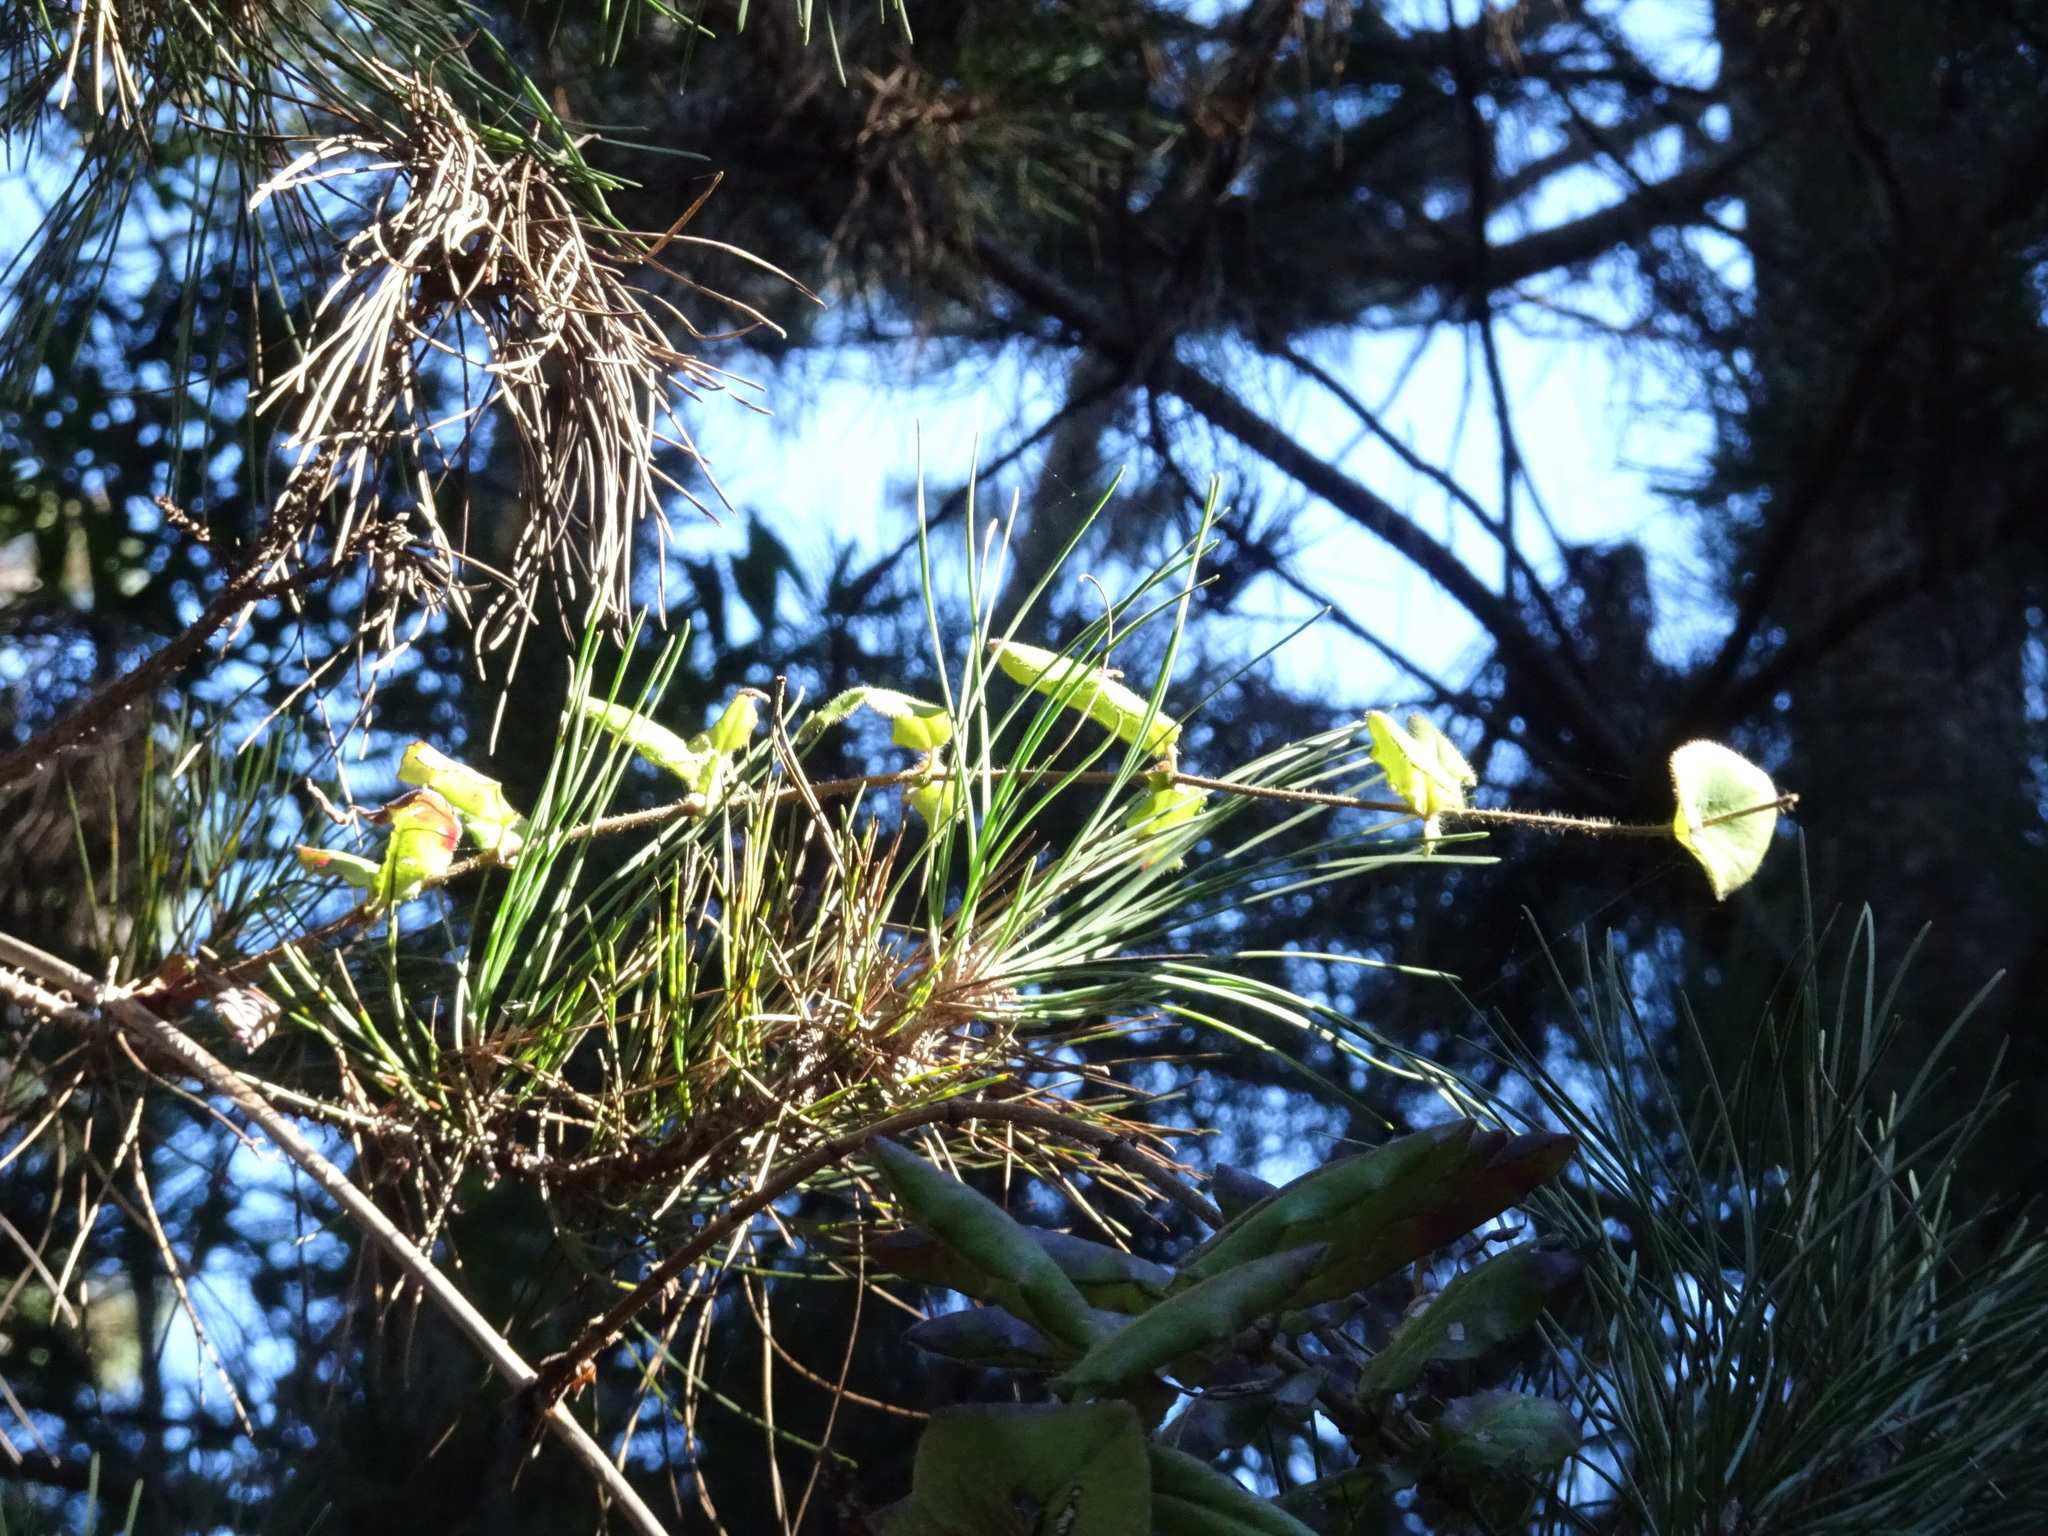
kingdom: Plantae
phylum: Tracheophyta
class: Magnoliopsida
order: Dipsacales
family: Caprifoliaceae
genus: Lonicera
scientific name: Lonicera hispidula
